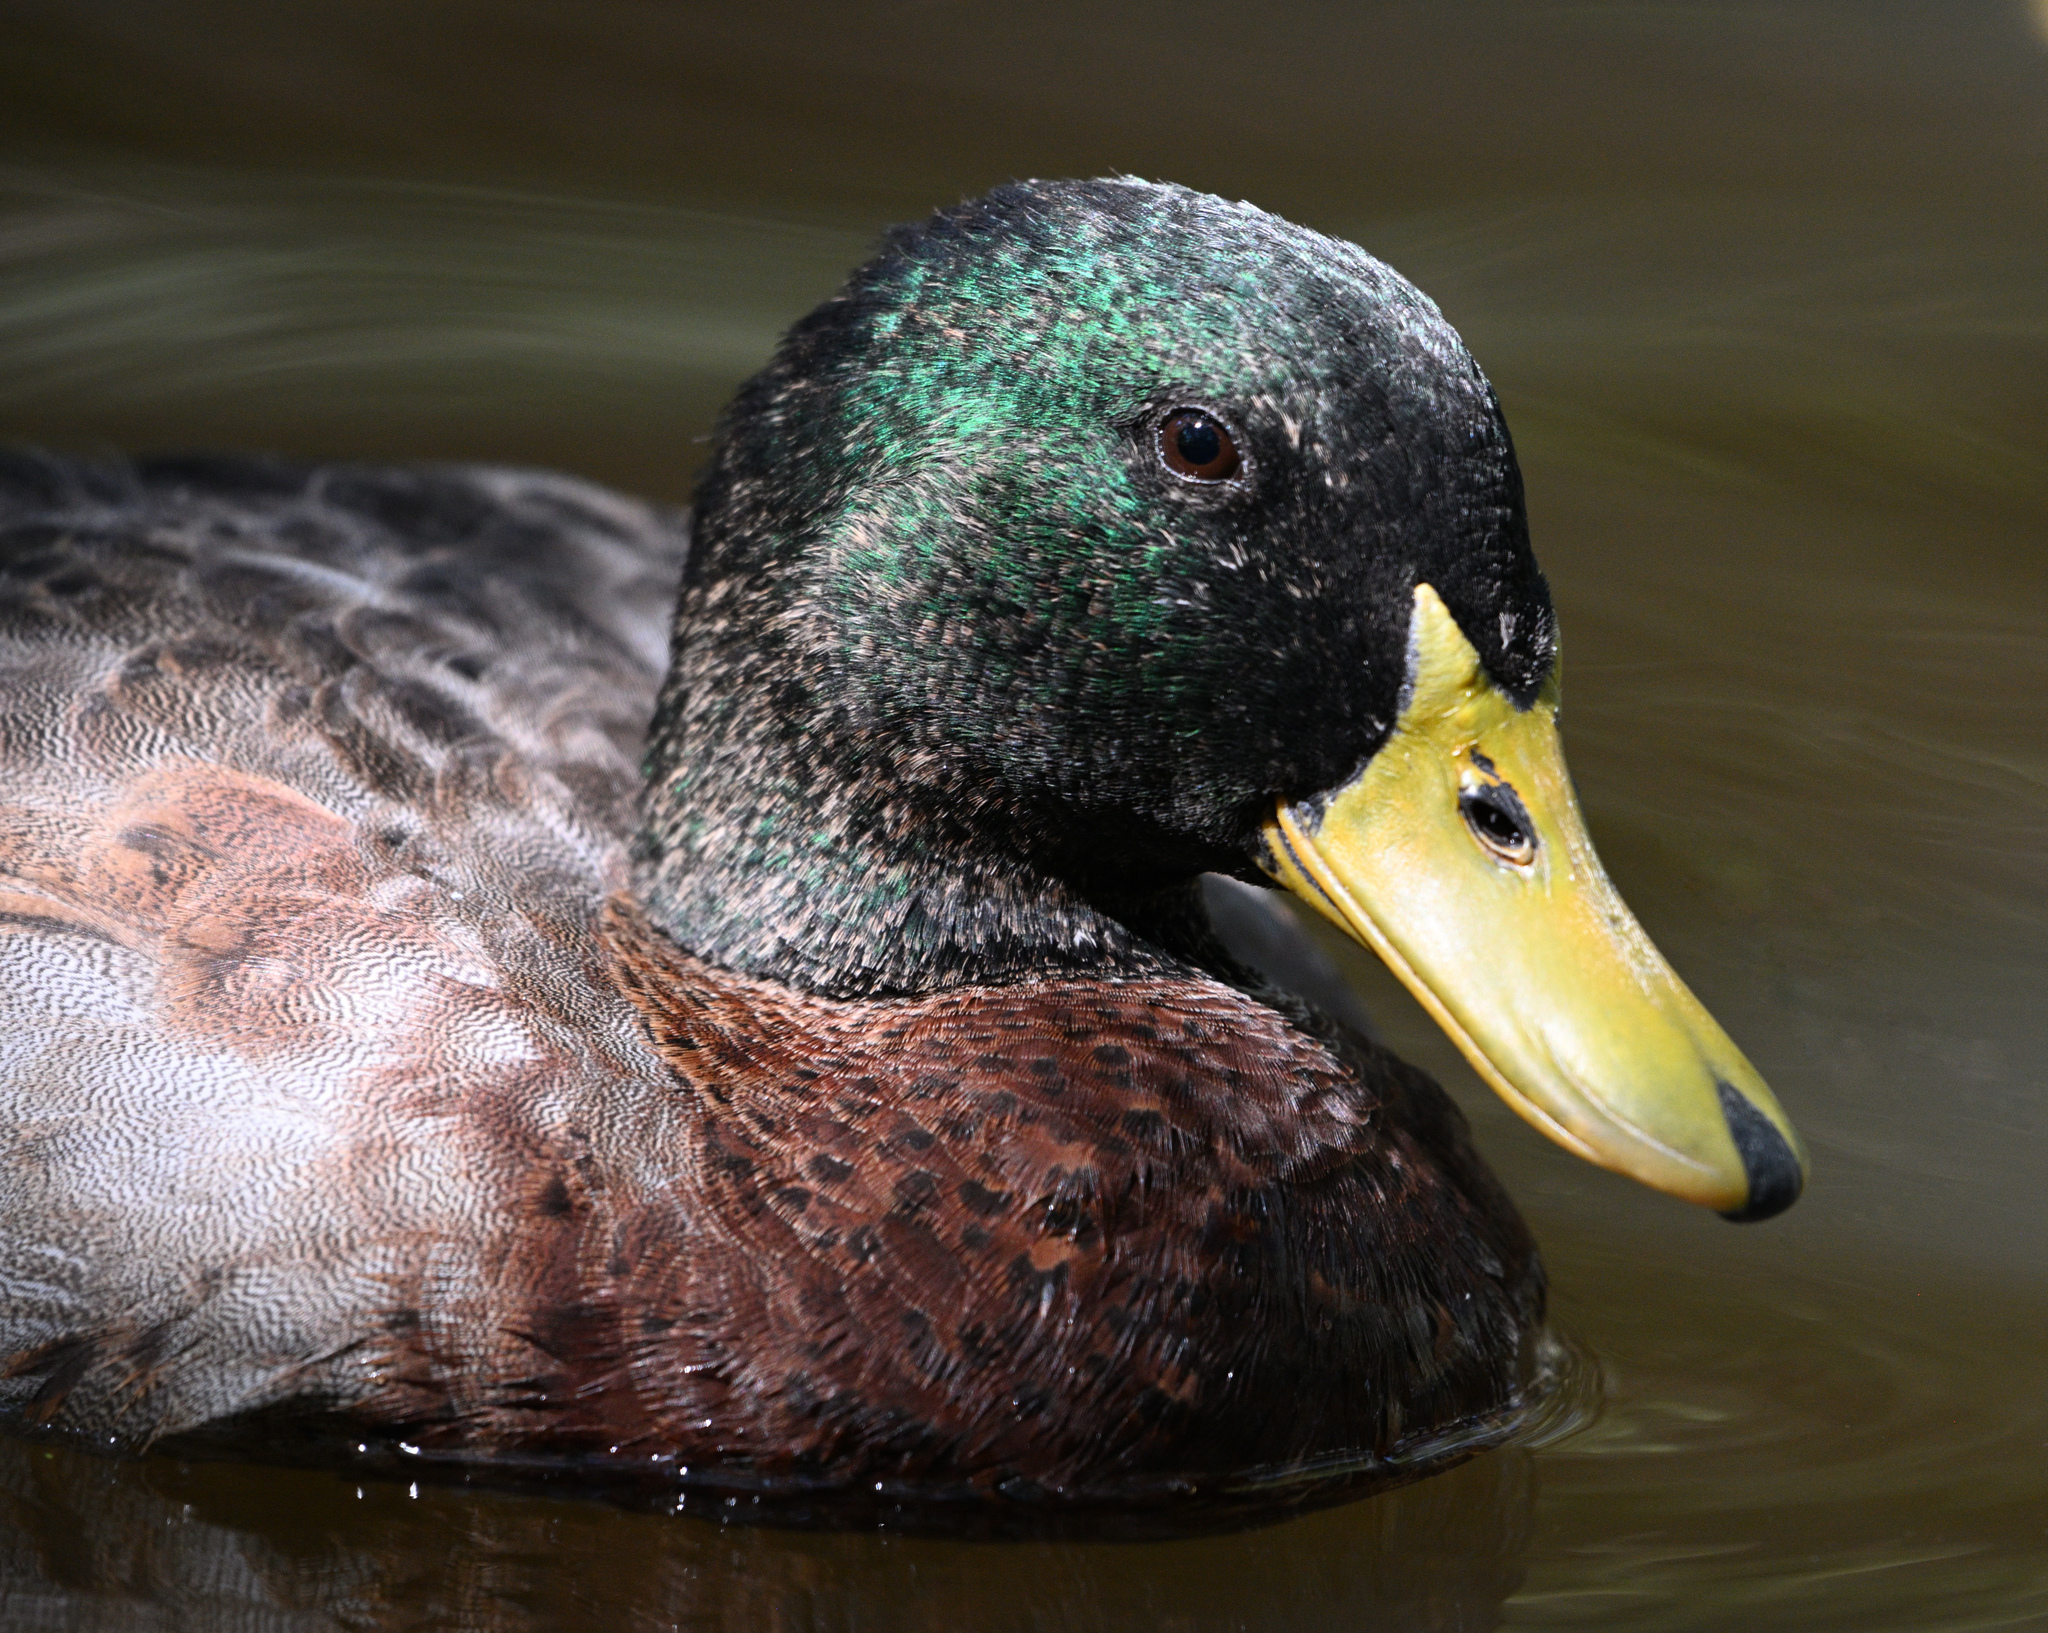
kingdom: Animalia
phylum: Chordata
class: Aves
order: Anseriformes
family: Anatidae
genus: Anas
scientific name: Anas platyrhynchos
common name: Mallard
